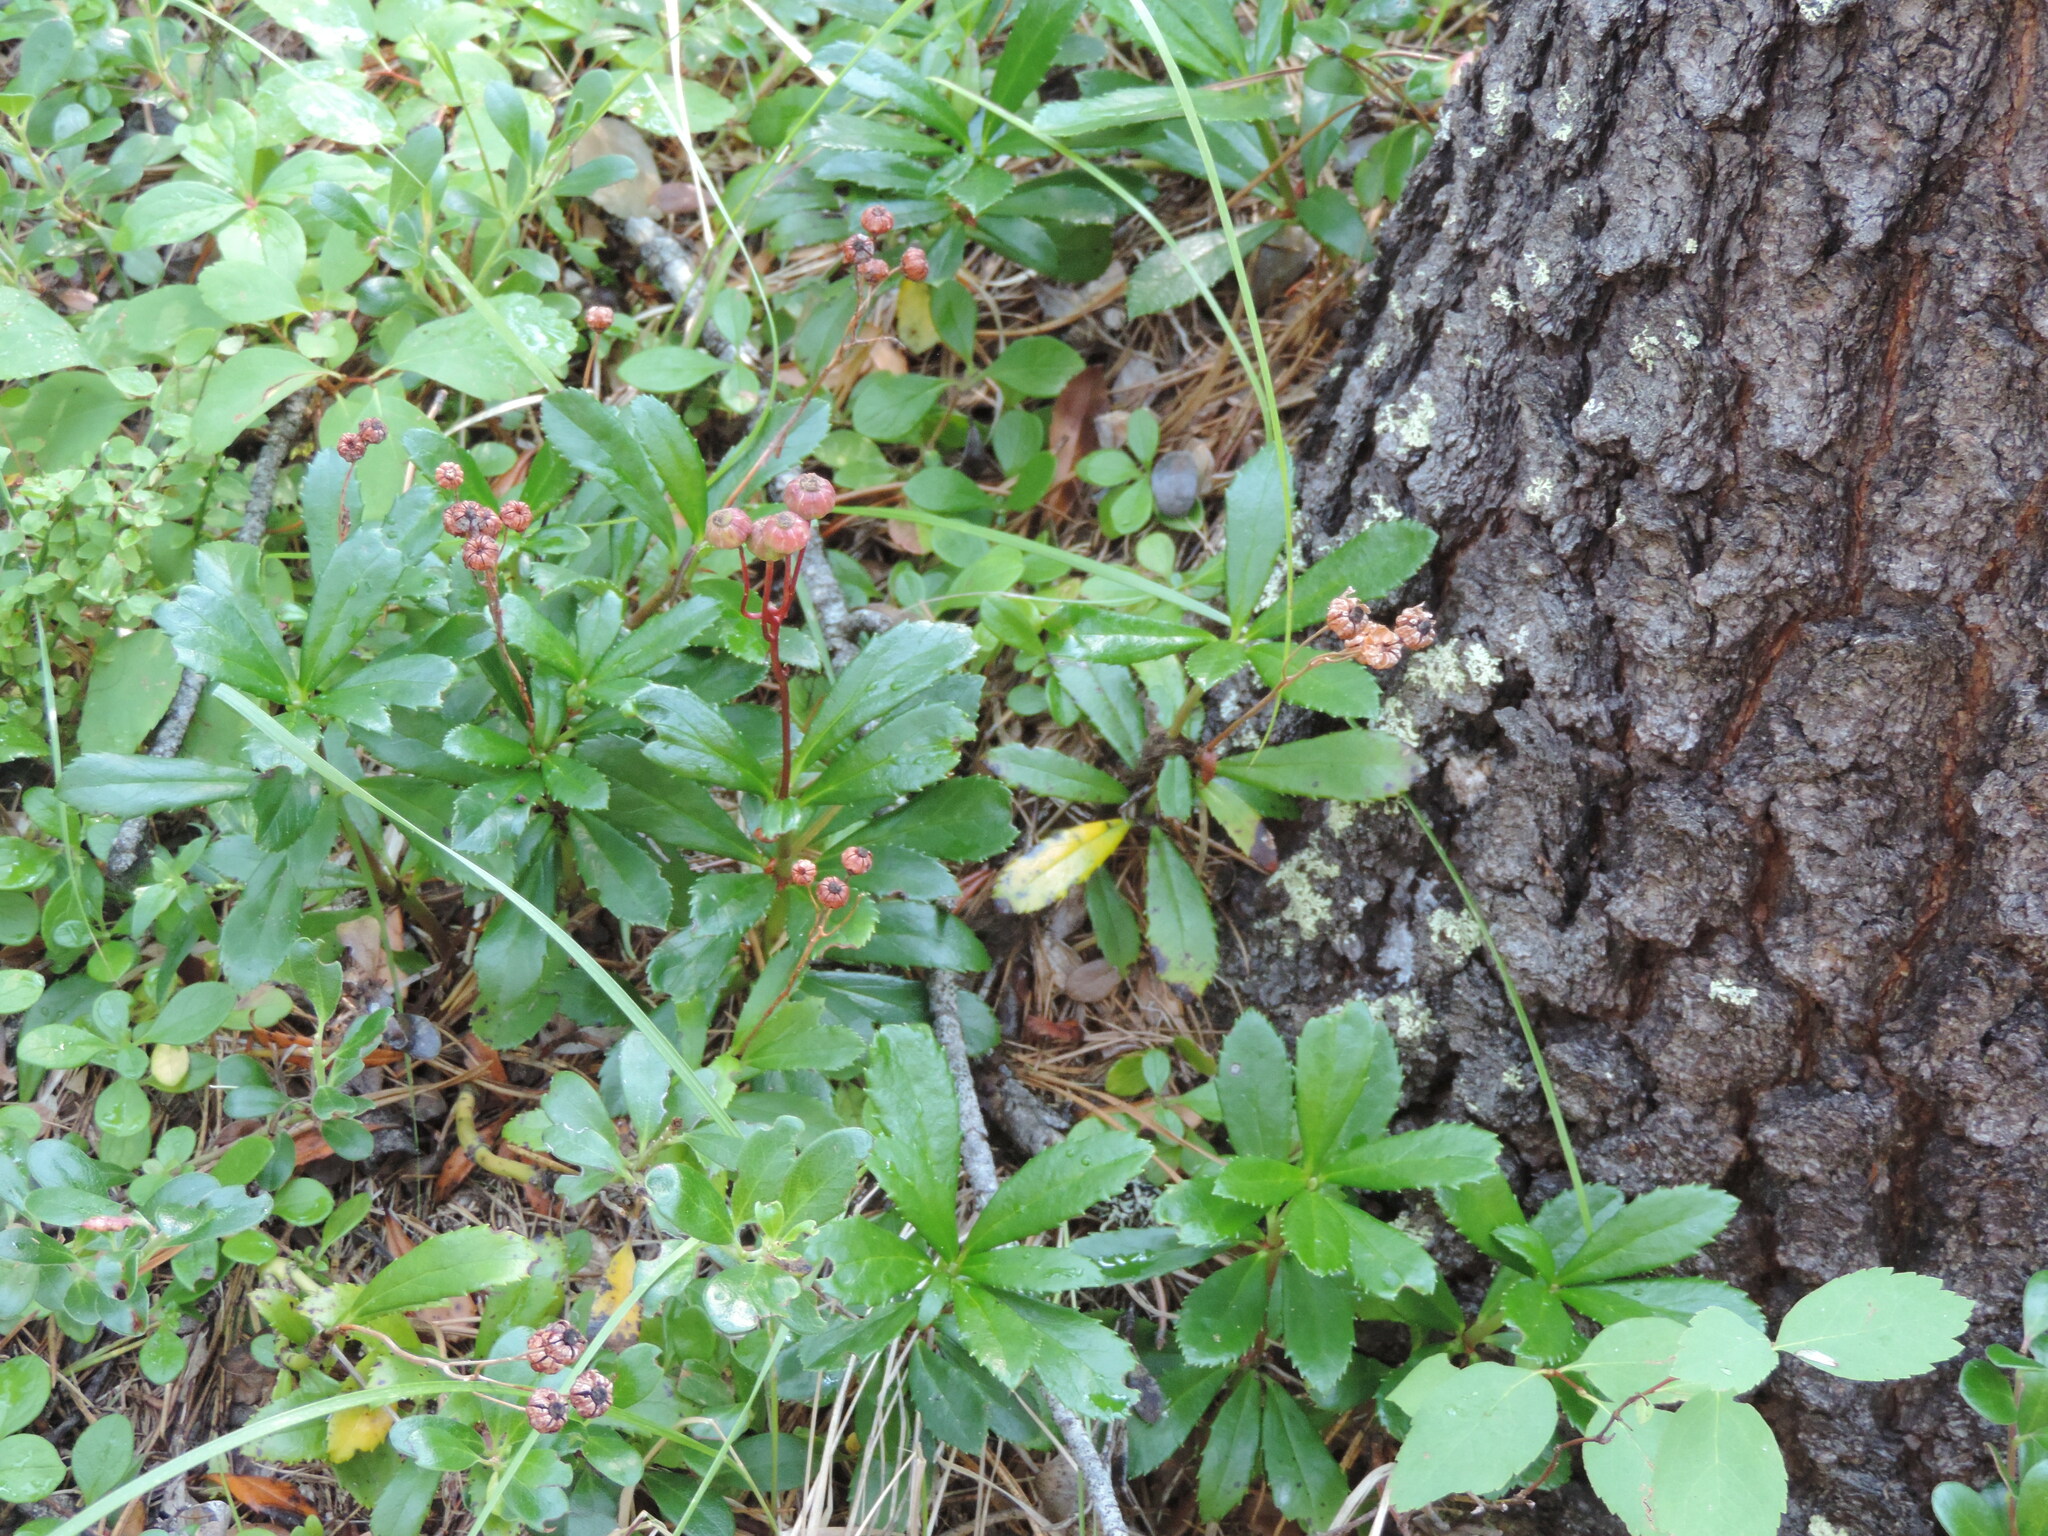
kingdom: Plantae
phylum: Tracheophyta
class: Magnoliopsida
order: Ericales
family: Ericaceae
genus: Chimaphila
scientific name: Chimaphila umbellata
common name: Pipsissewa
